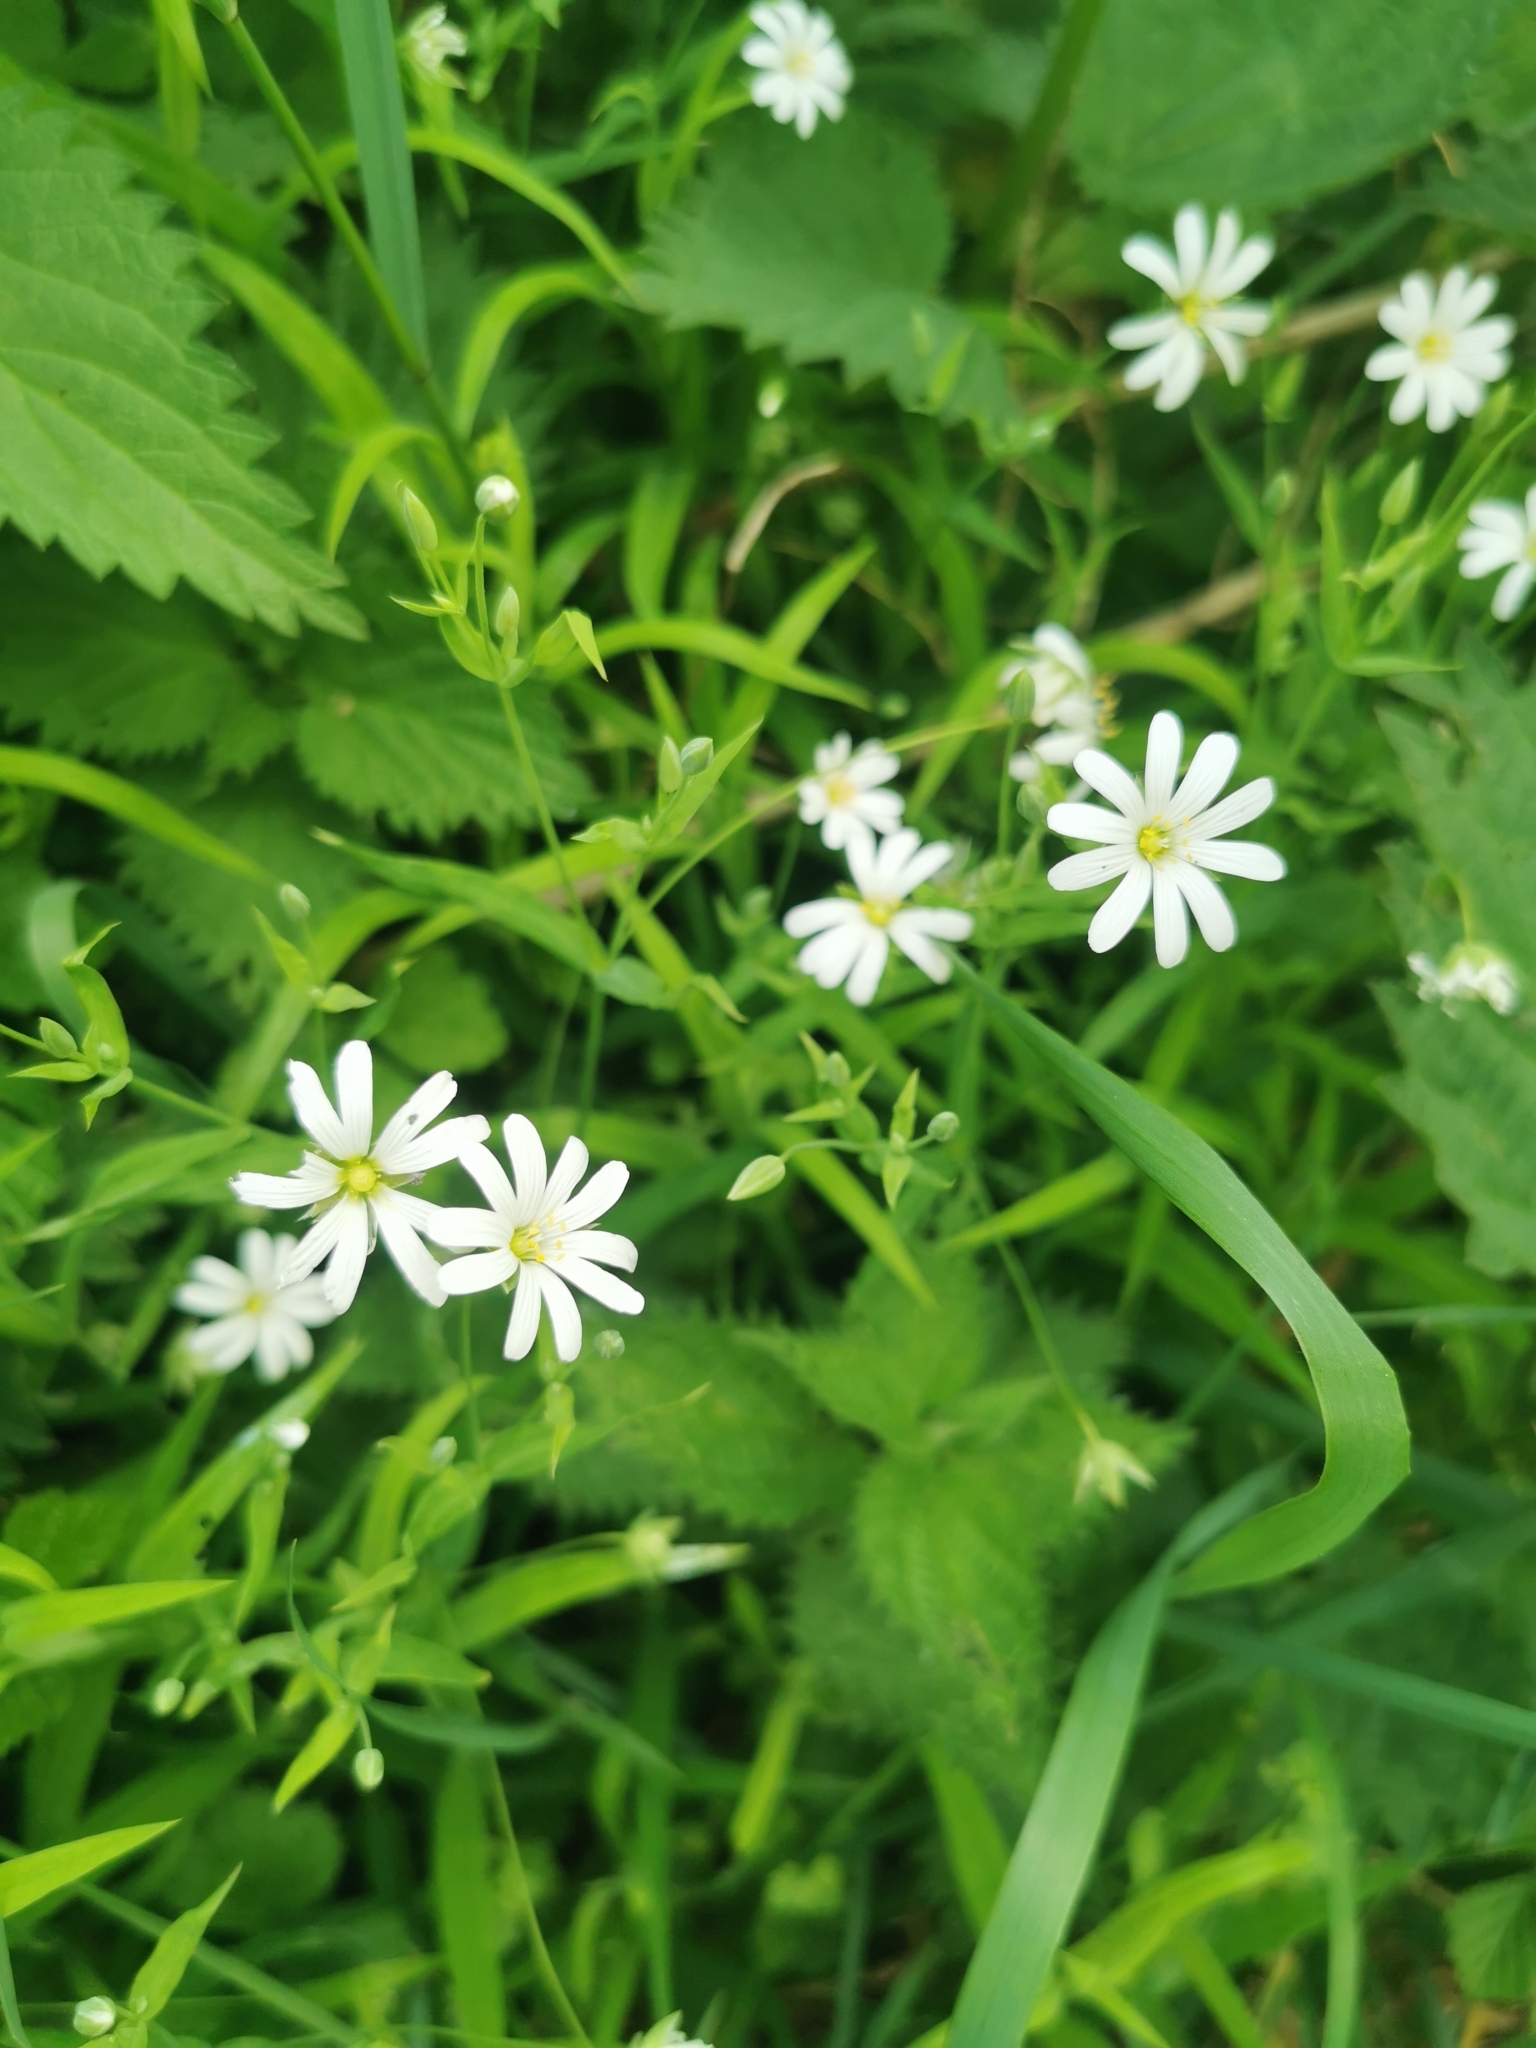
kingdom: Plantae
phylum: Tracheophyta
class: Magnoliopsida
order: Caryophyllales
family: Caryophyllaceae
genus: Rabelera
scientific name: Rabelera holostea
